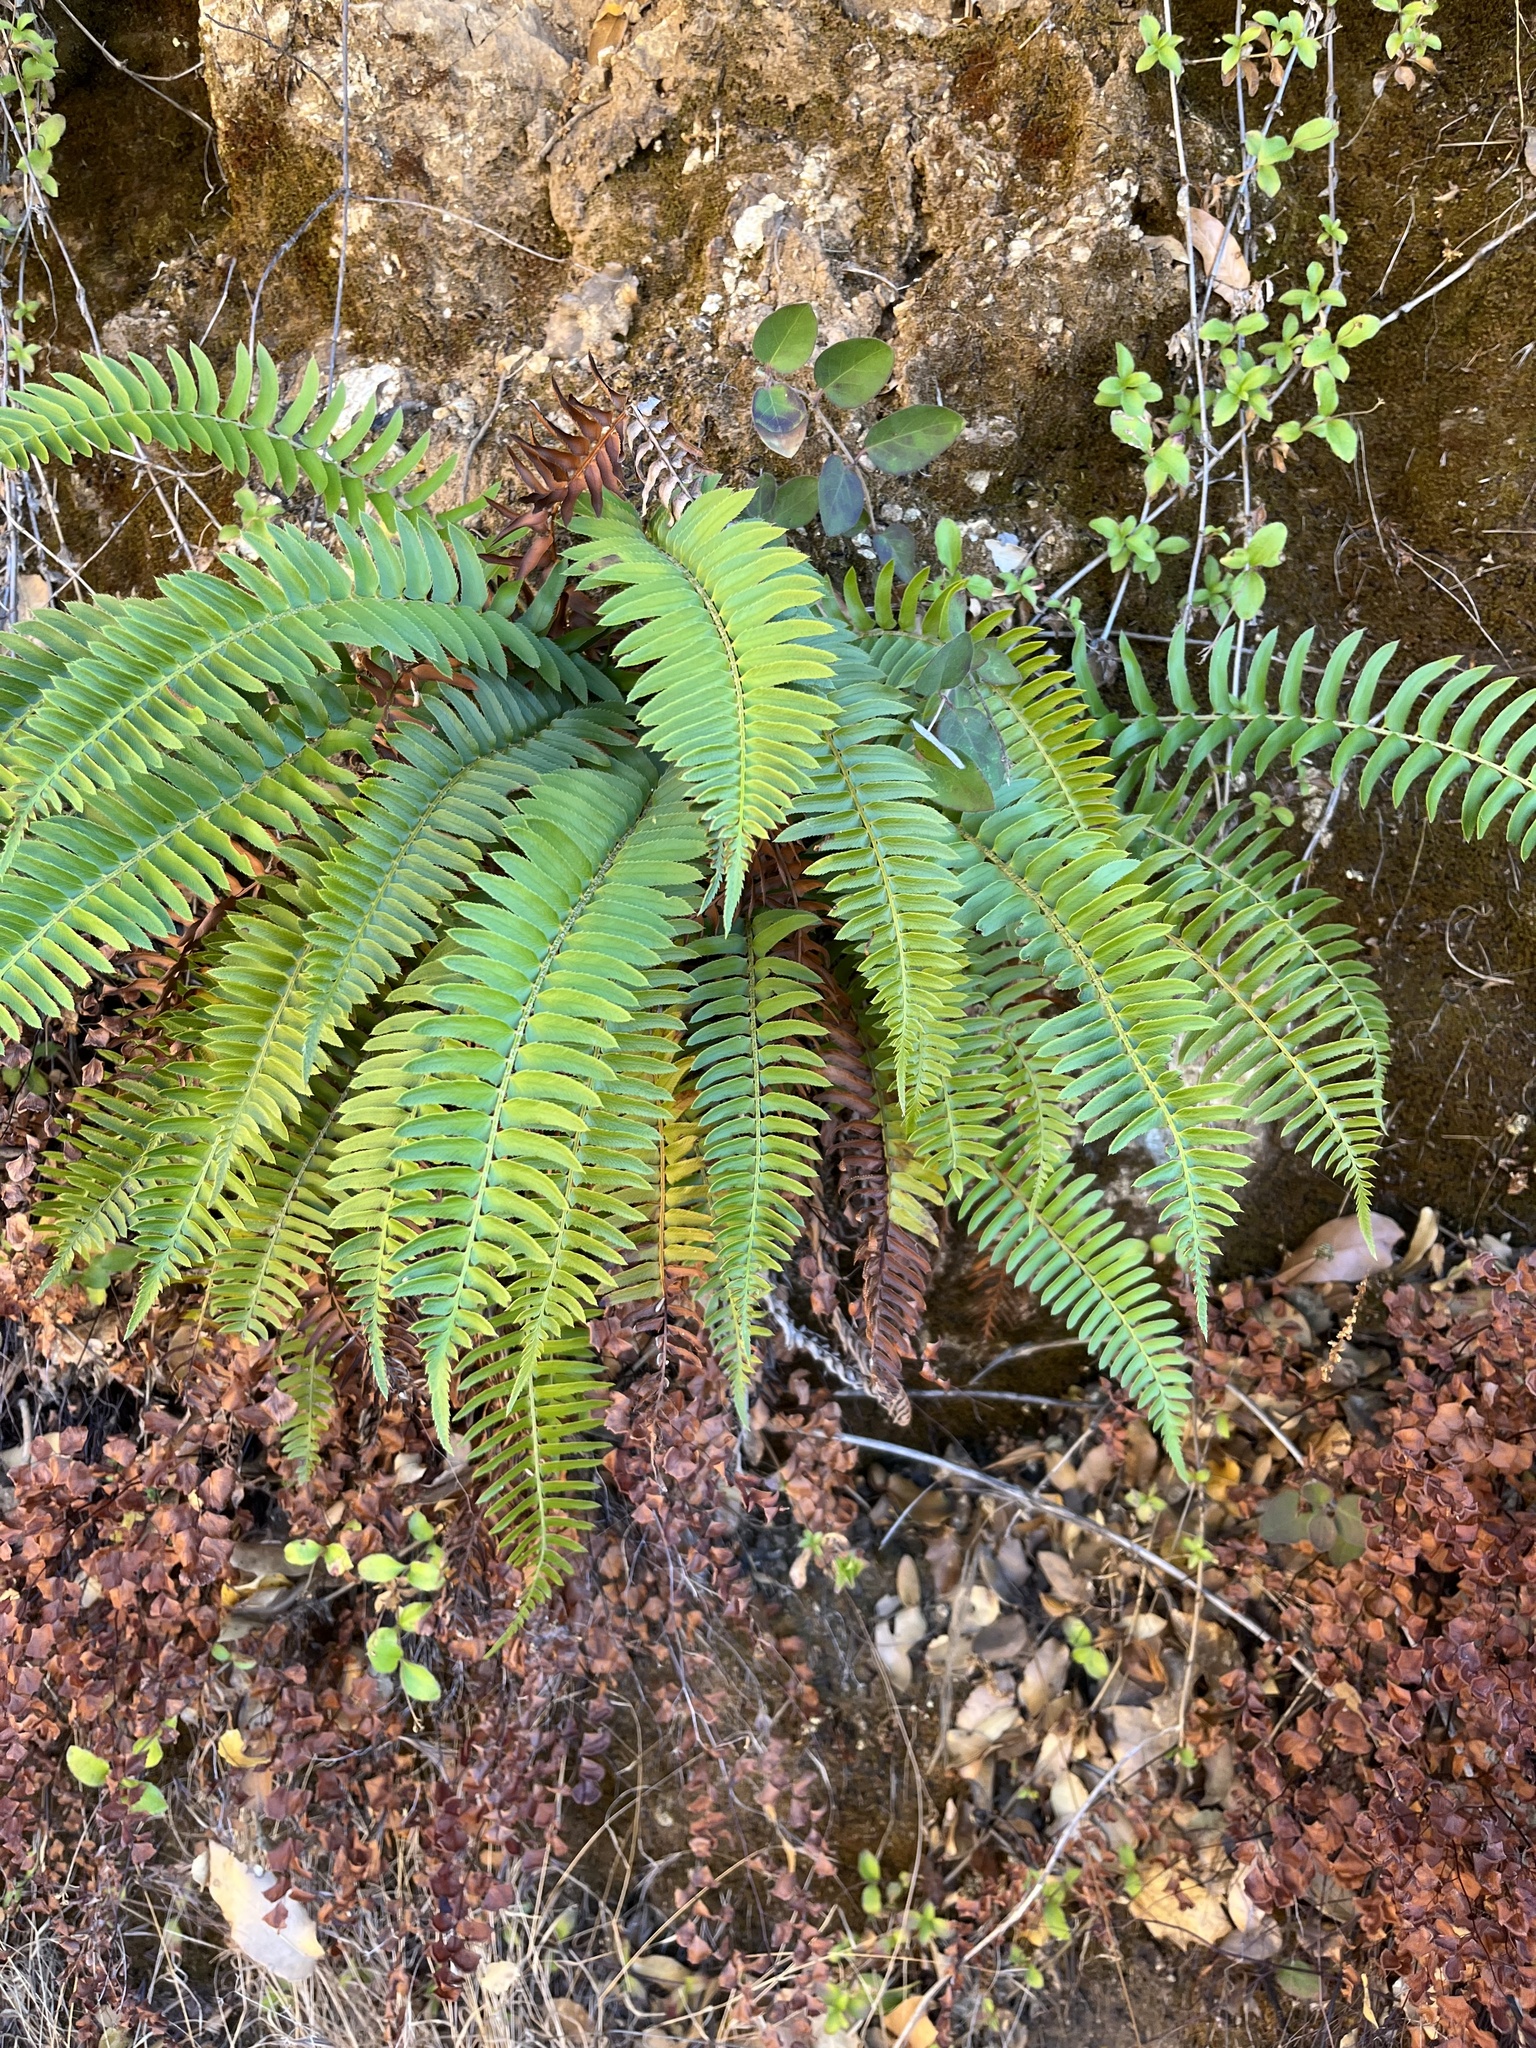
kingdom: Plantae
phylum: Tracheophyta
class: Polypodiopsida
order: Polypodiales
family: Dryopteridaceae
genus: Polystichum
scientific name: Polystichum munitum
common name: Western sword-fern
